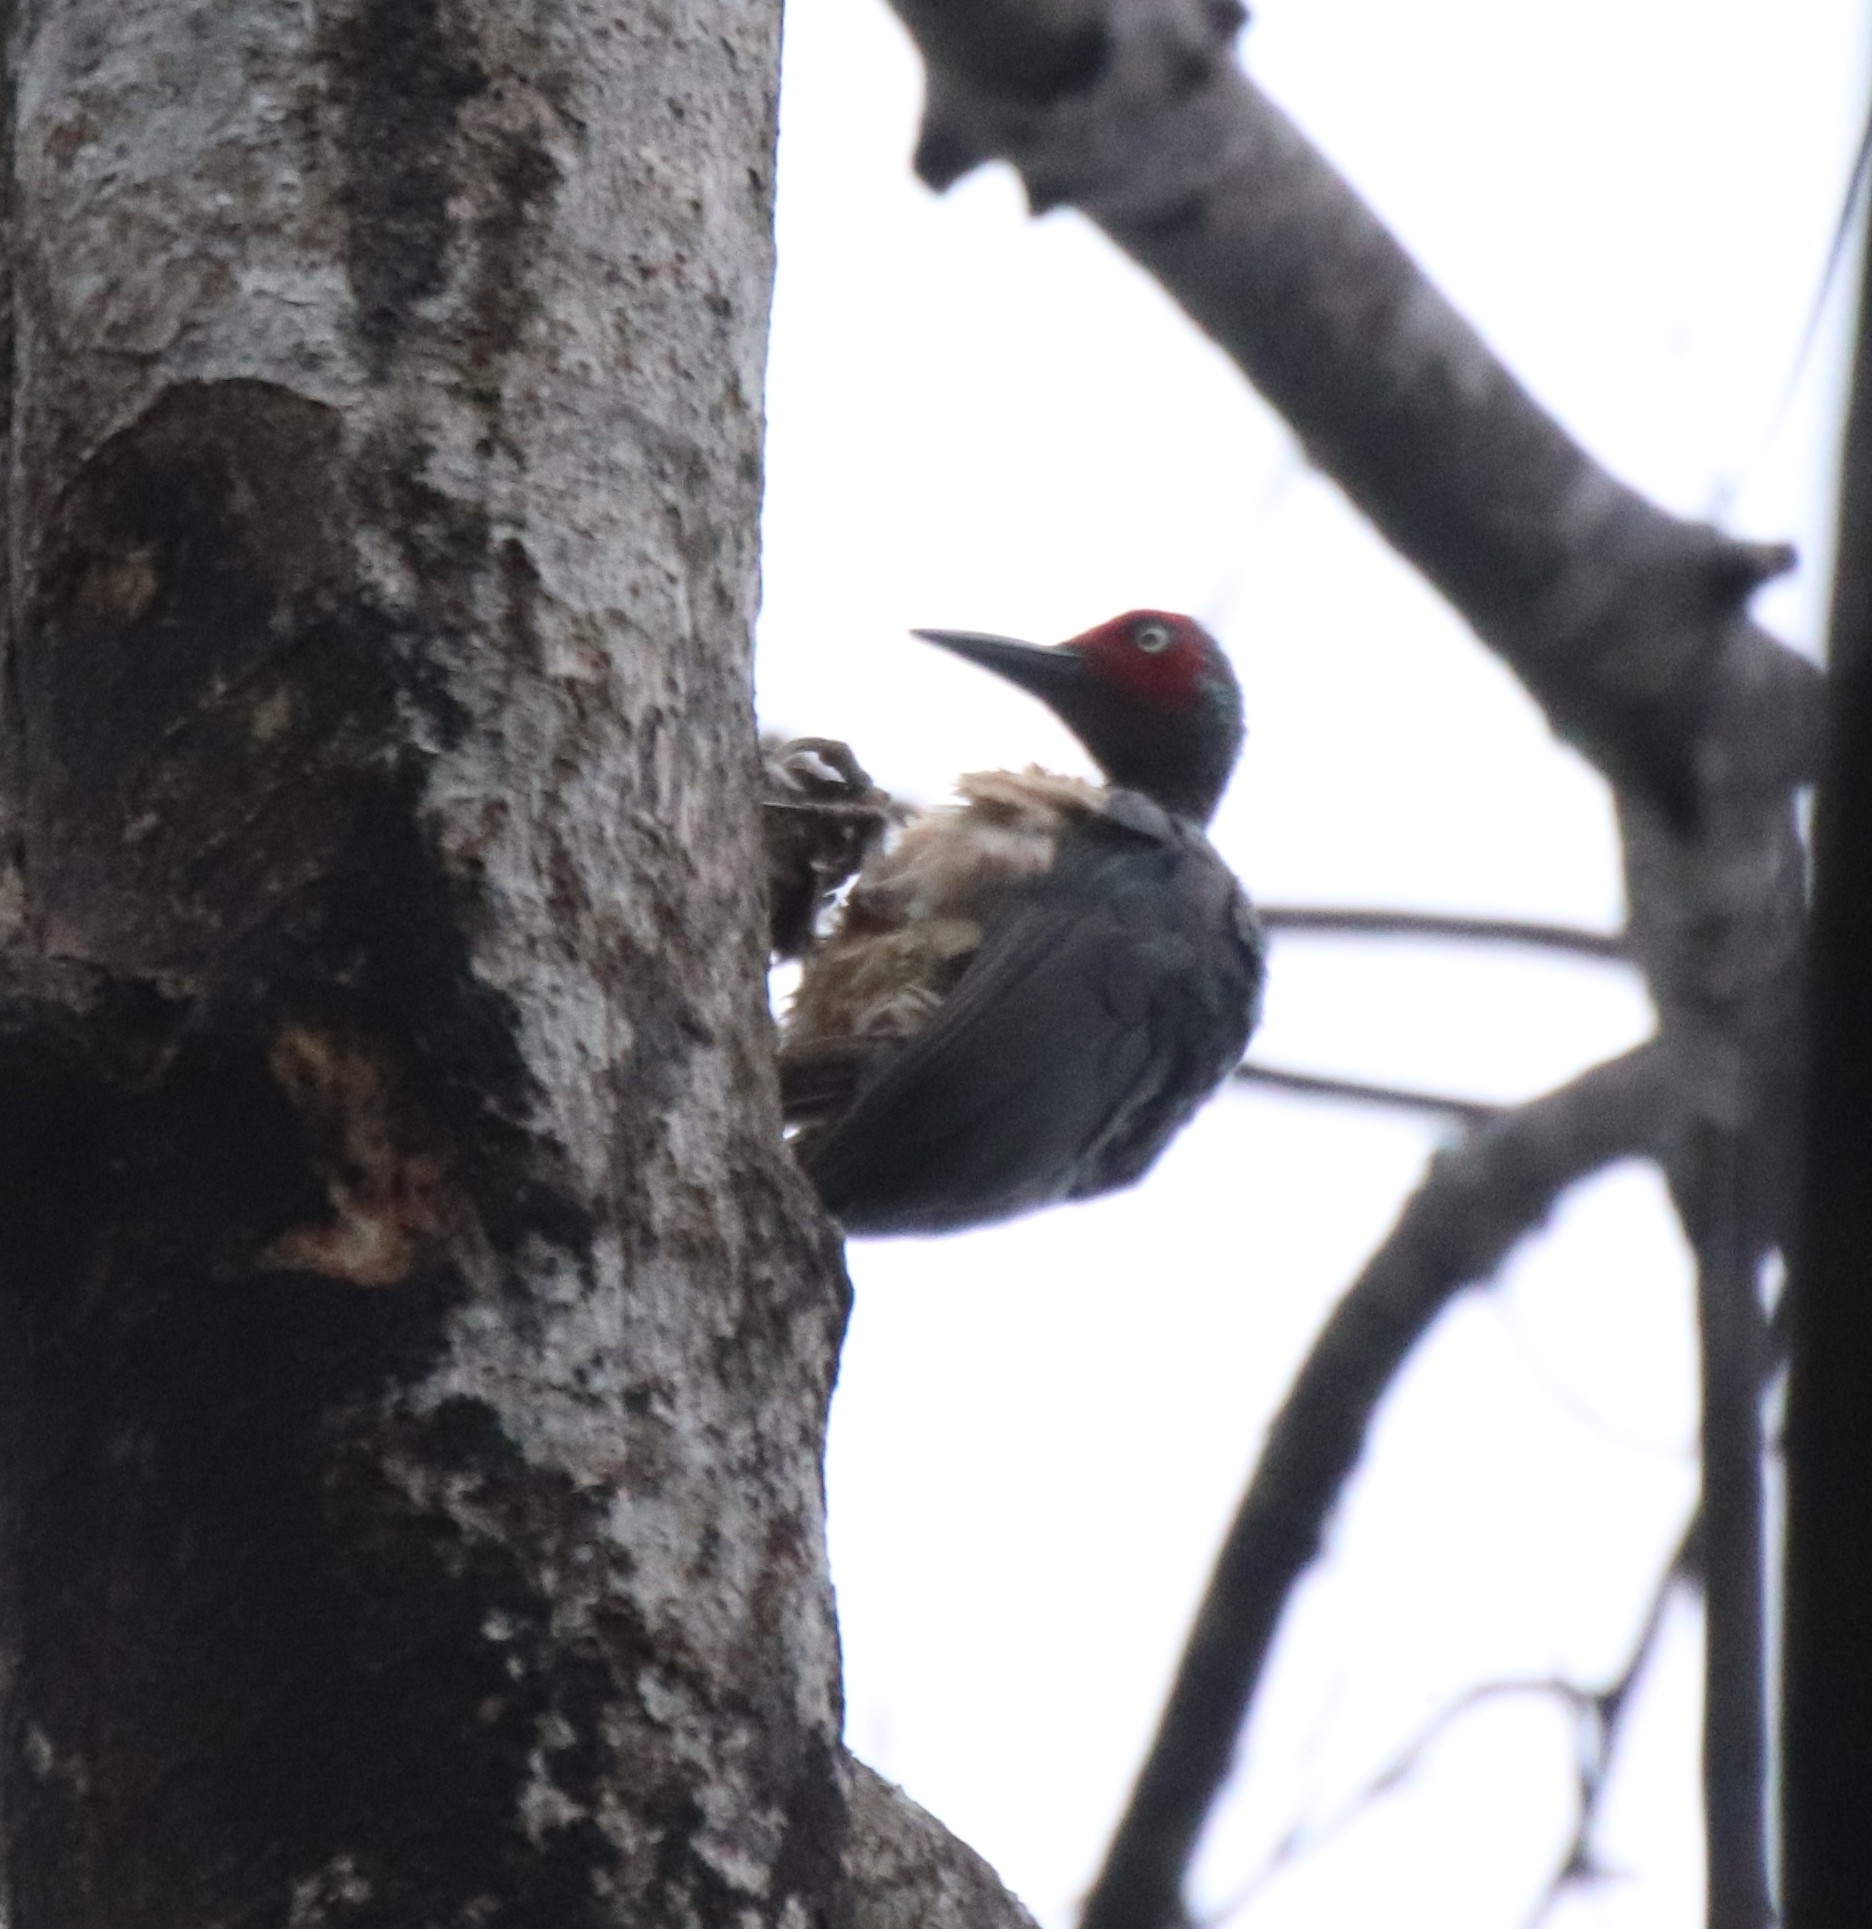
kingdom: Animalia
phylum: Chordata
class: Aves
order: Piciformes
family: Picidae
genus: Mulleripicus
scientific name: Mulleripicus fulvus
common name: Ashy woodpecker
